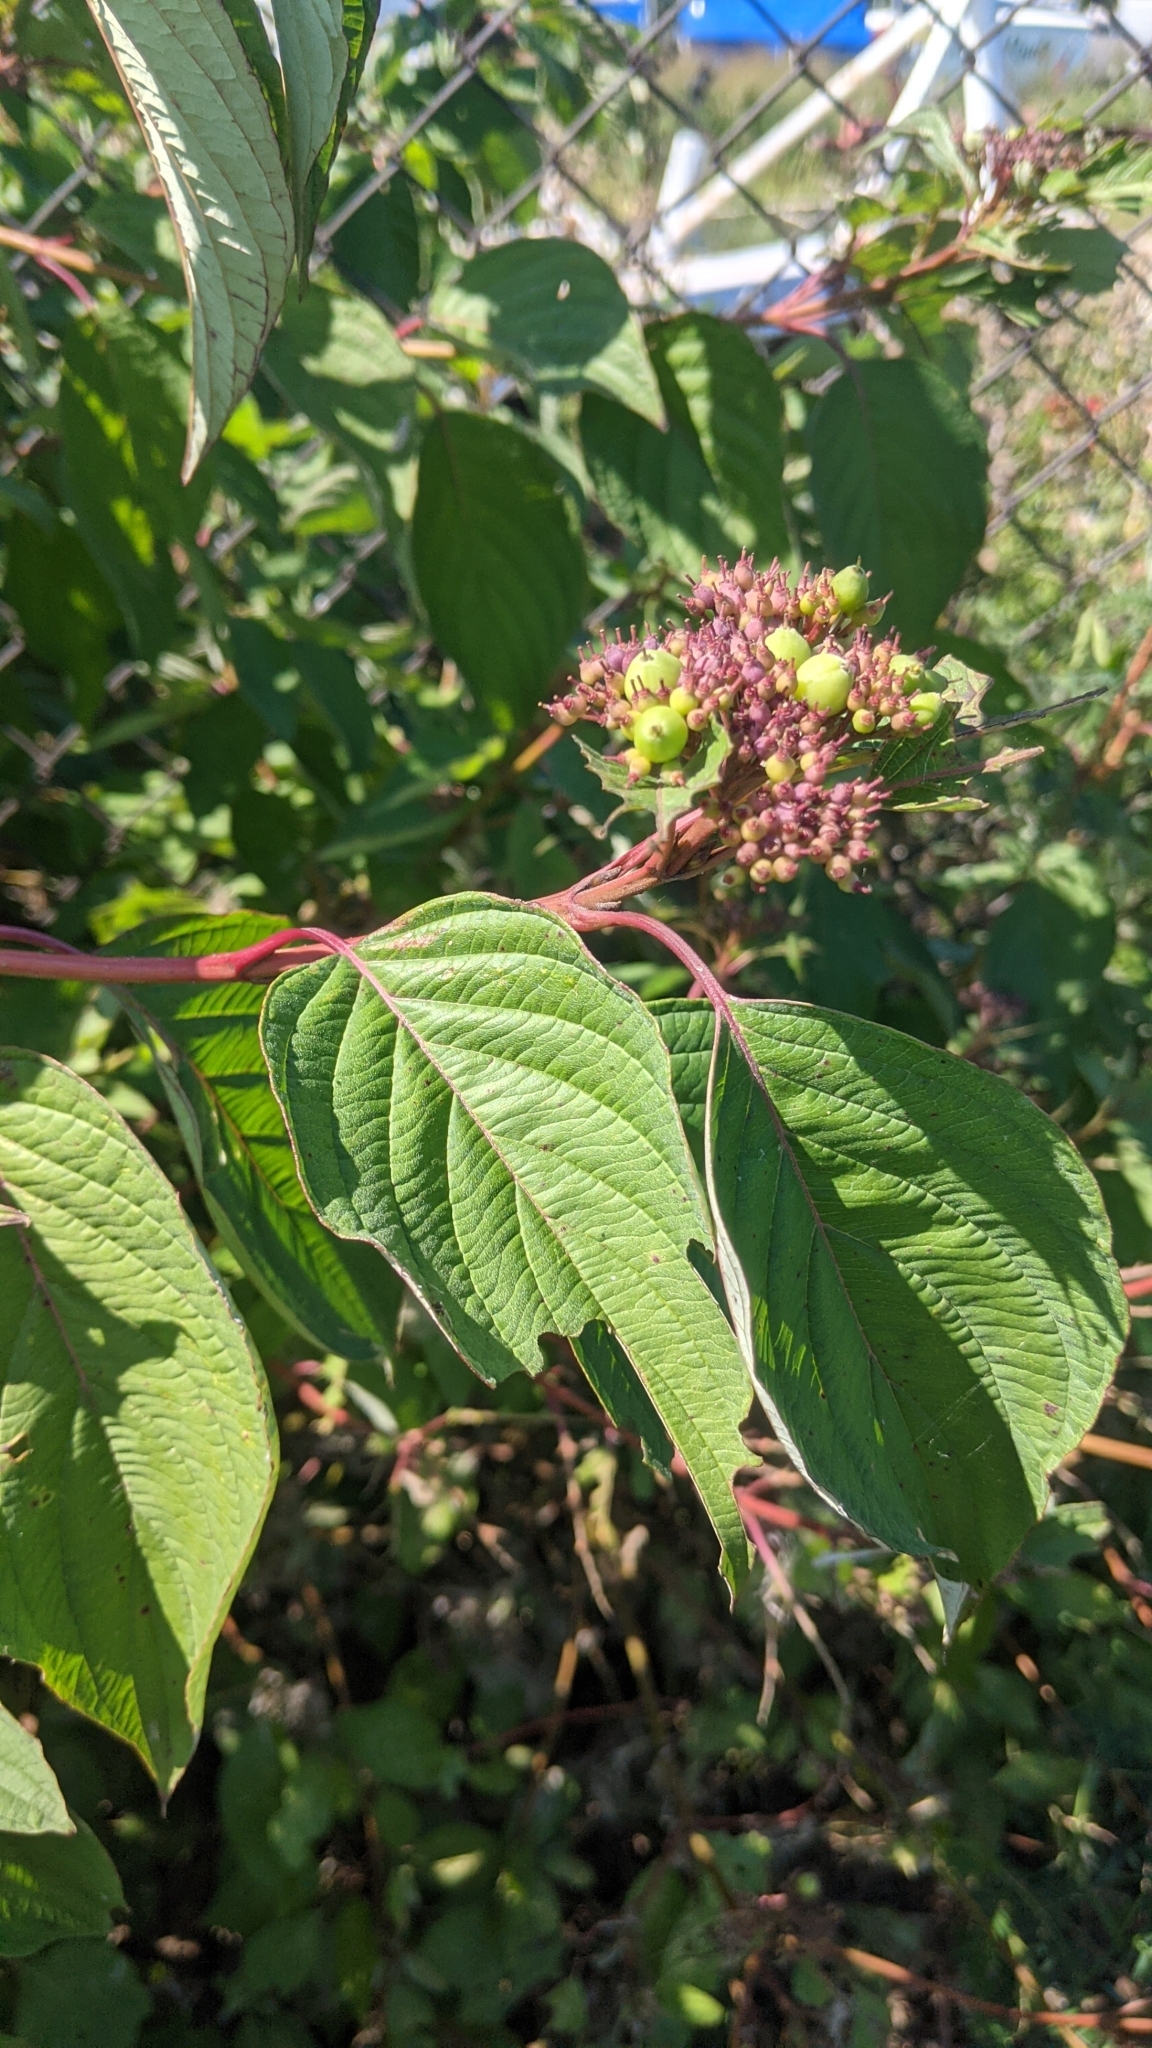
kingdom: Plantae
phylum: Tracheophyta
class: Magnoliopsida
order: Cornales
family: Cornaceae
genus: Cornus
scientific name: Cornus sericea
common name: Red-osier dogwood
